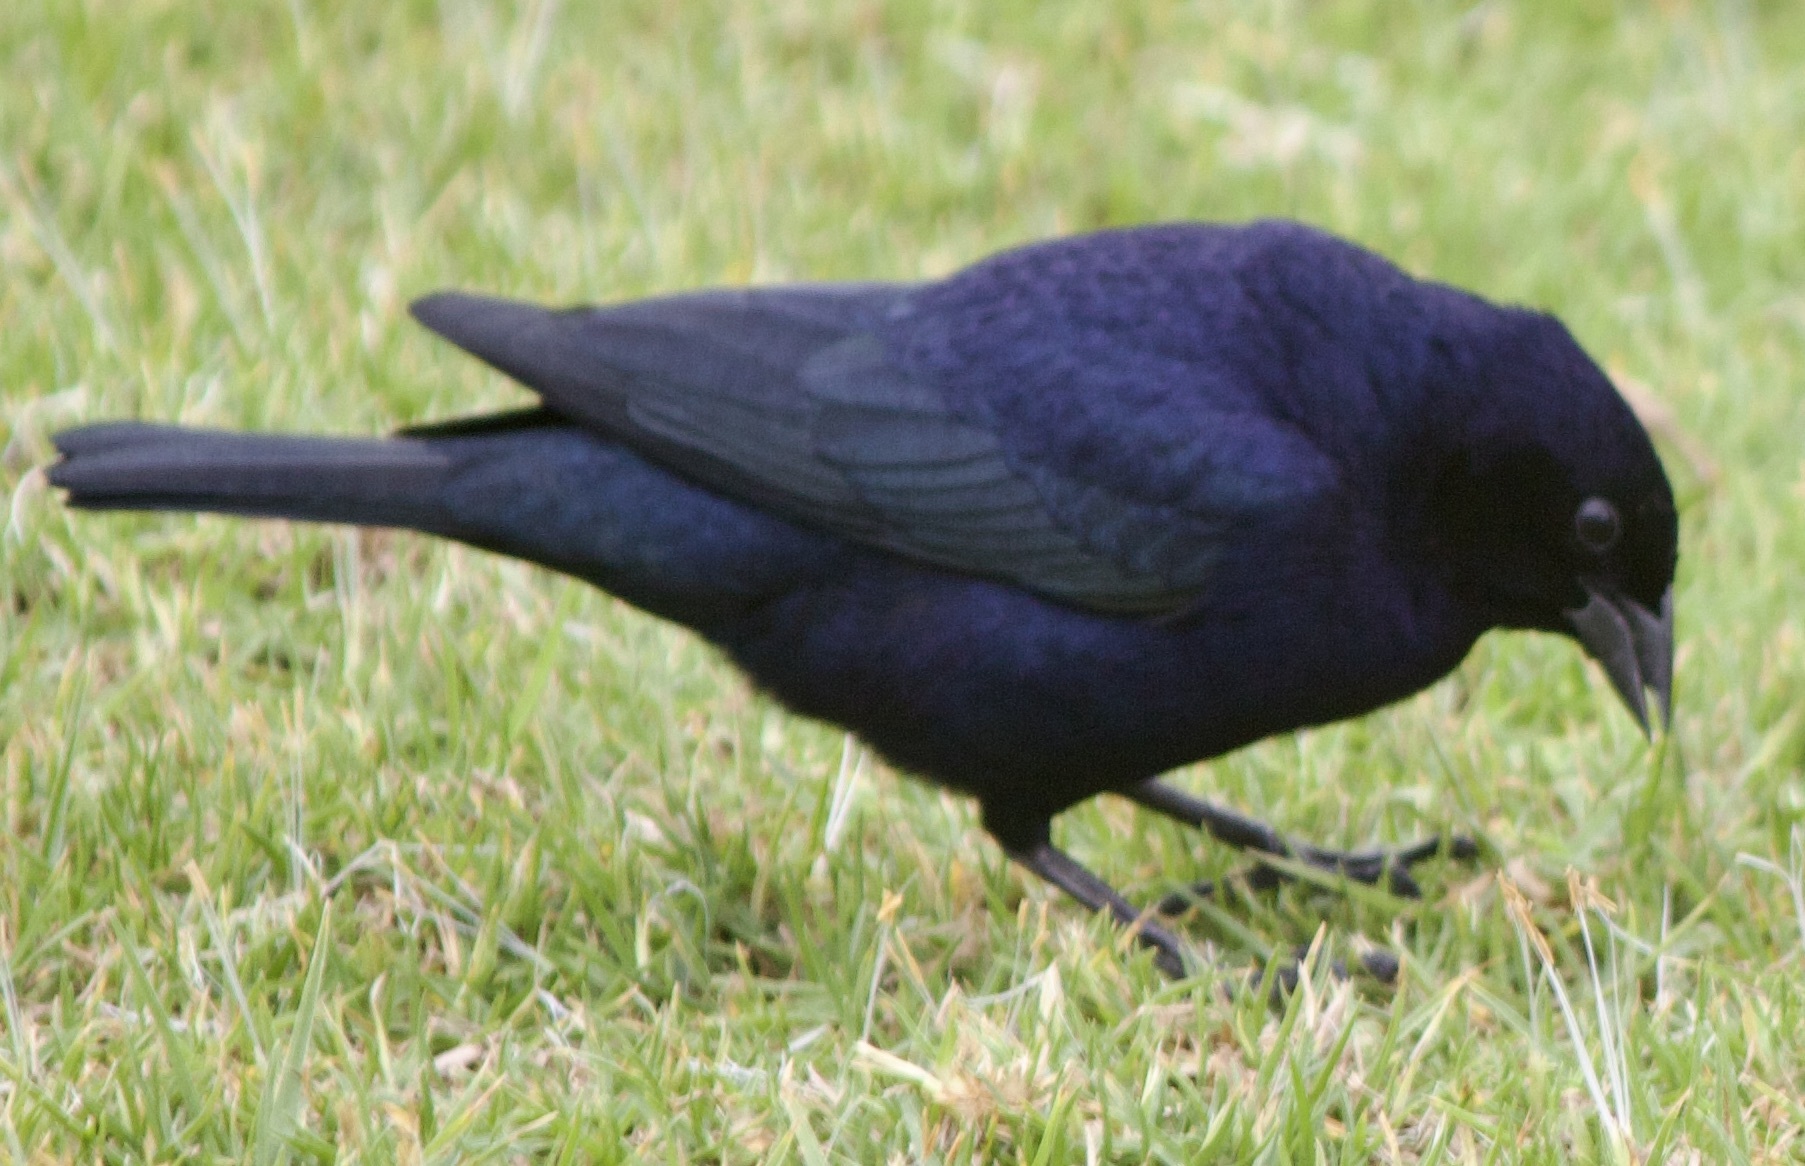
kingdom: Animalia
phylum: Chordata
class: Aves
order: Passeriformes
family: Icteridae
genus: Molothrus
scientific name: Molothrus bonariensis
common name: Shiny cowbird
